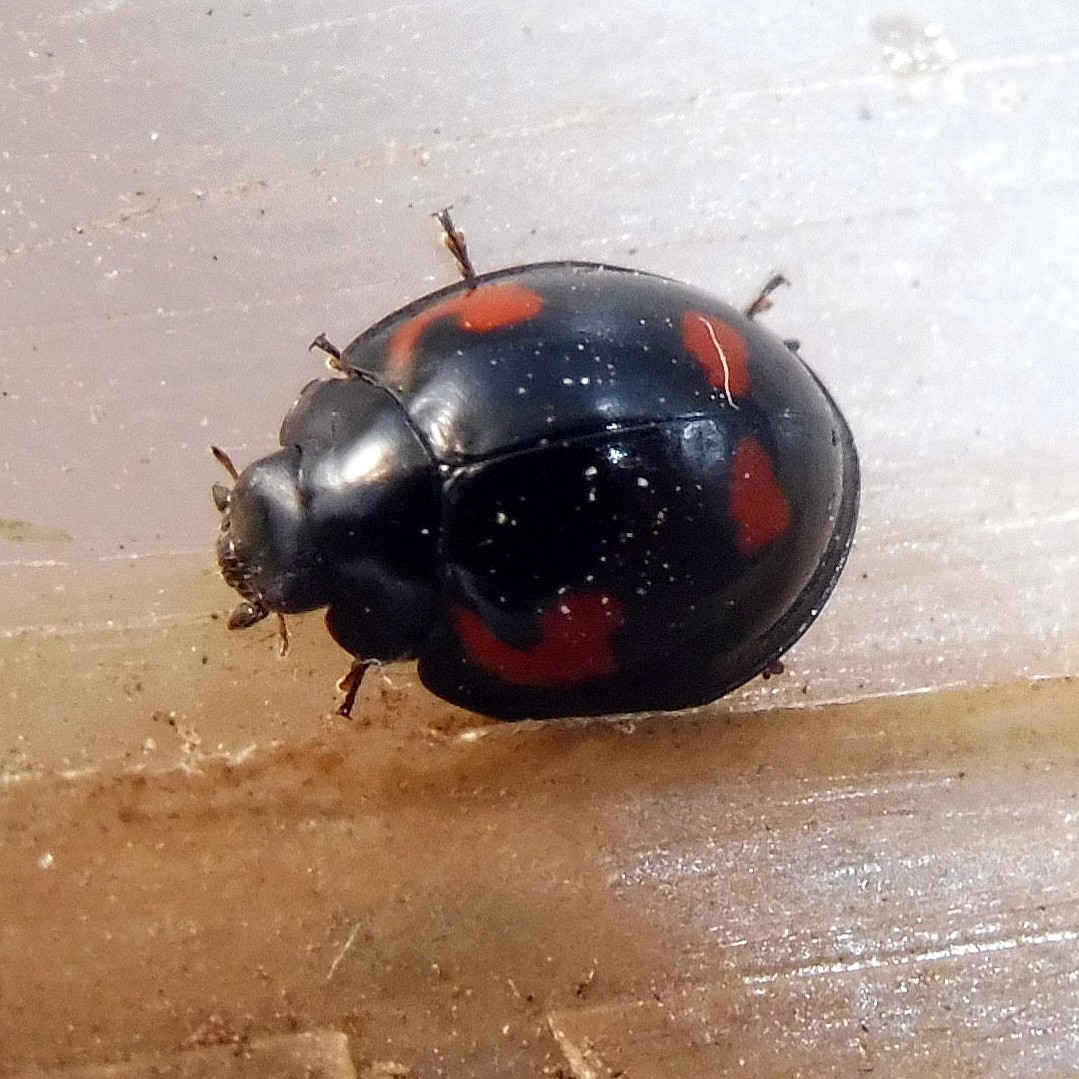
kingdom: Animalia
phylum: Arthropoda
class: Insecta
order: Coleoptera
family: Coccinellidae
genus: Brumus
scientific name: Brumus quadripustulatus
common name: Ladybird beetle
